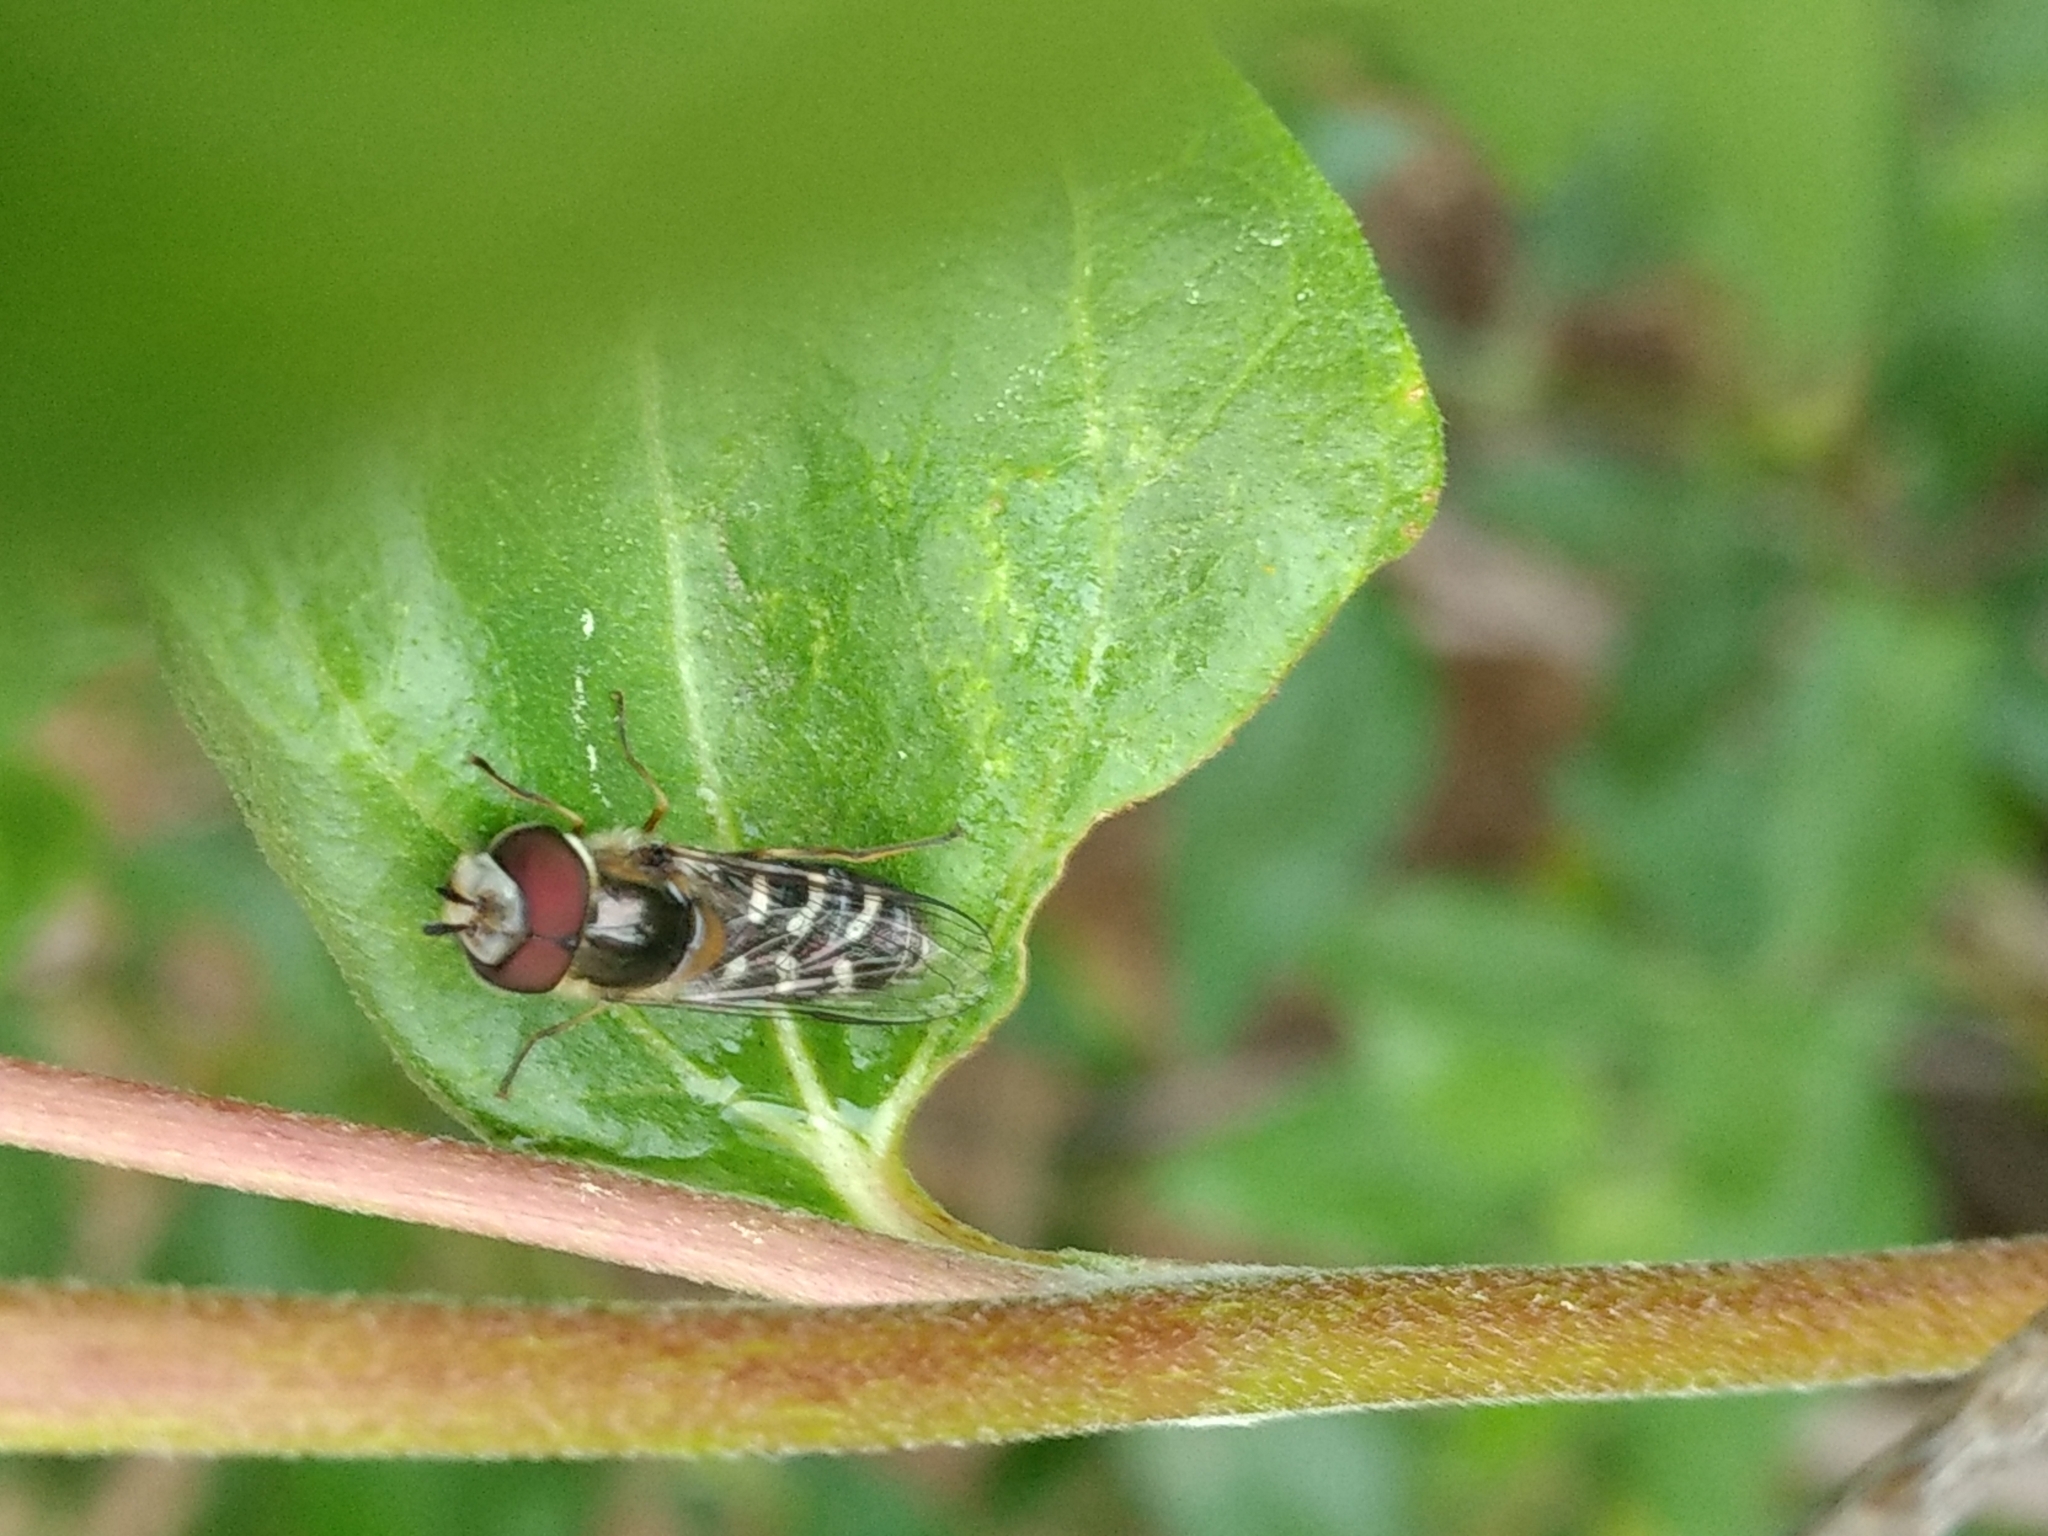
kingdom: Animalia
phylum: Arthropoda
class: Insecta
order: Diptera
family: Syrphidae
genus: Scaeva
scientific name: Scaeva affinis
